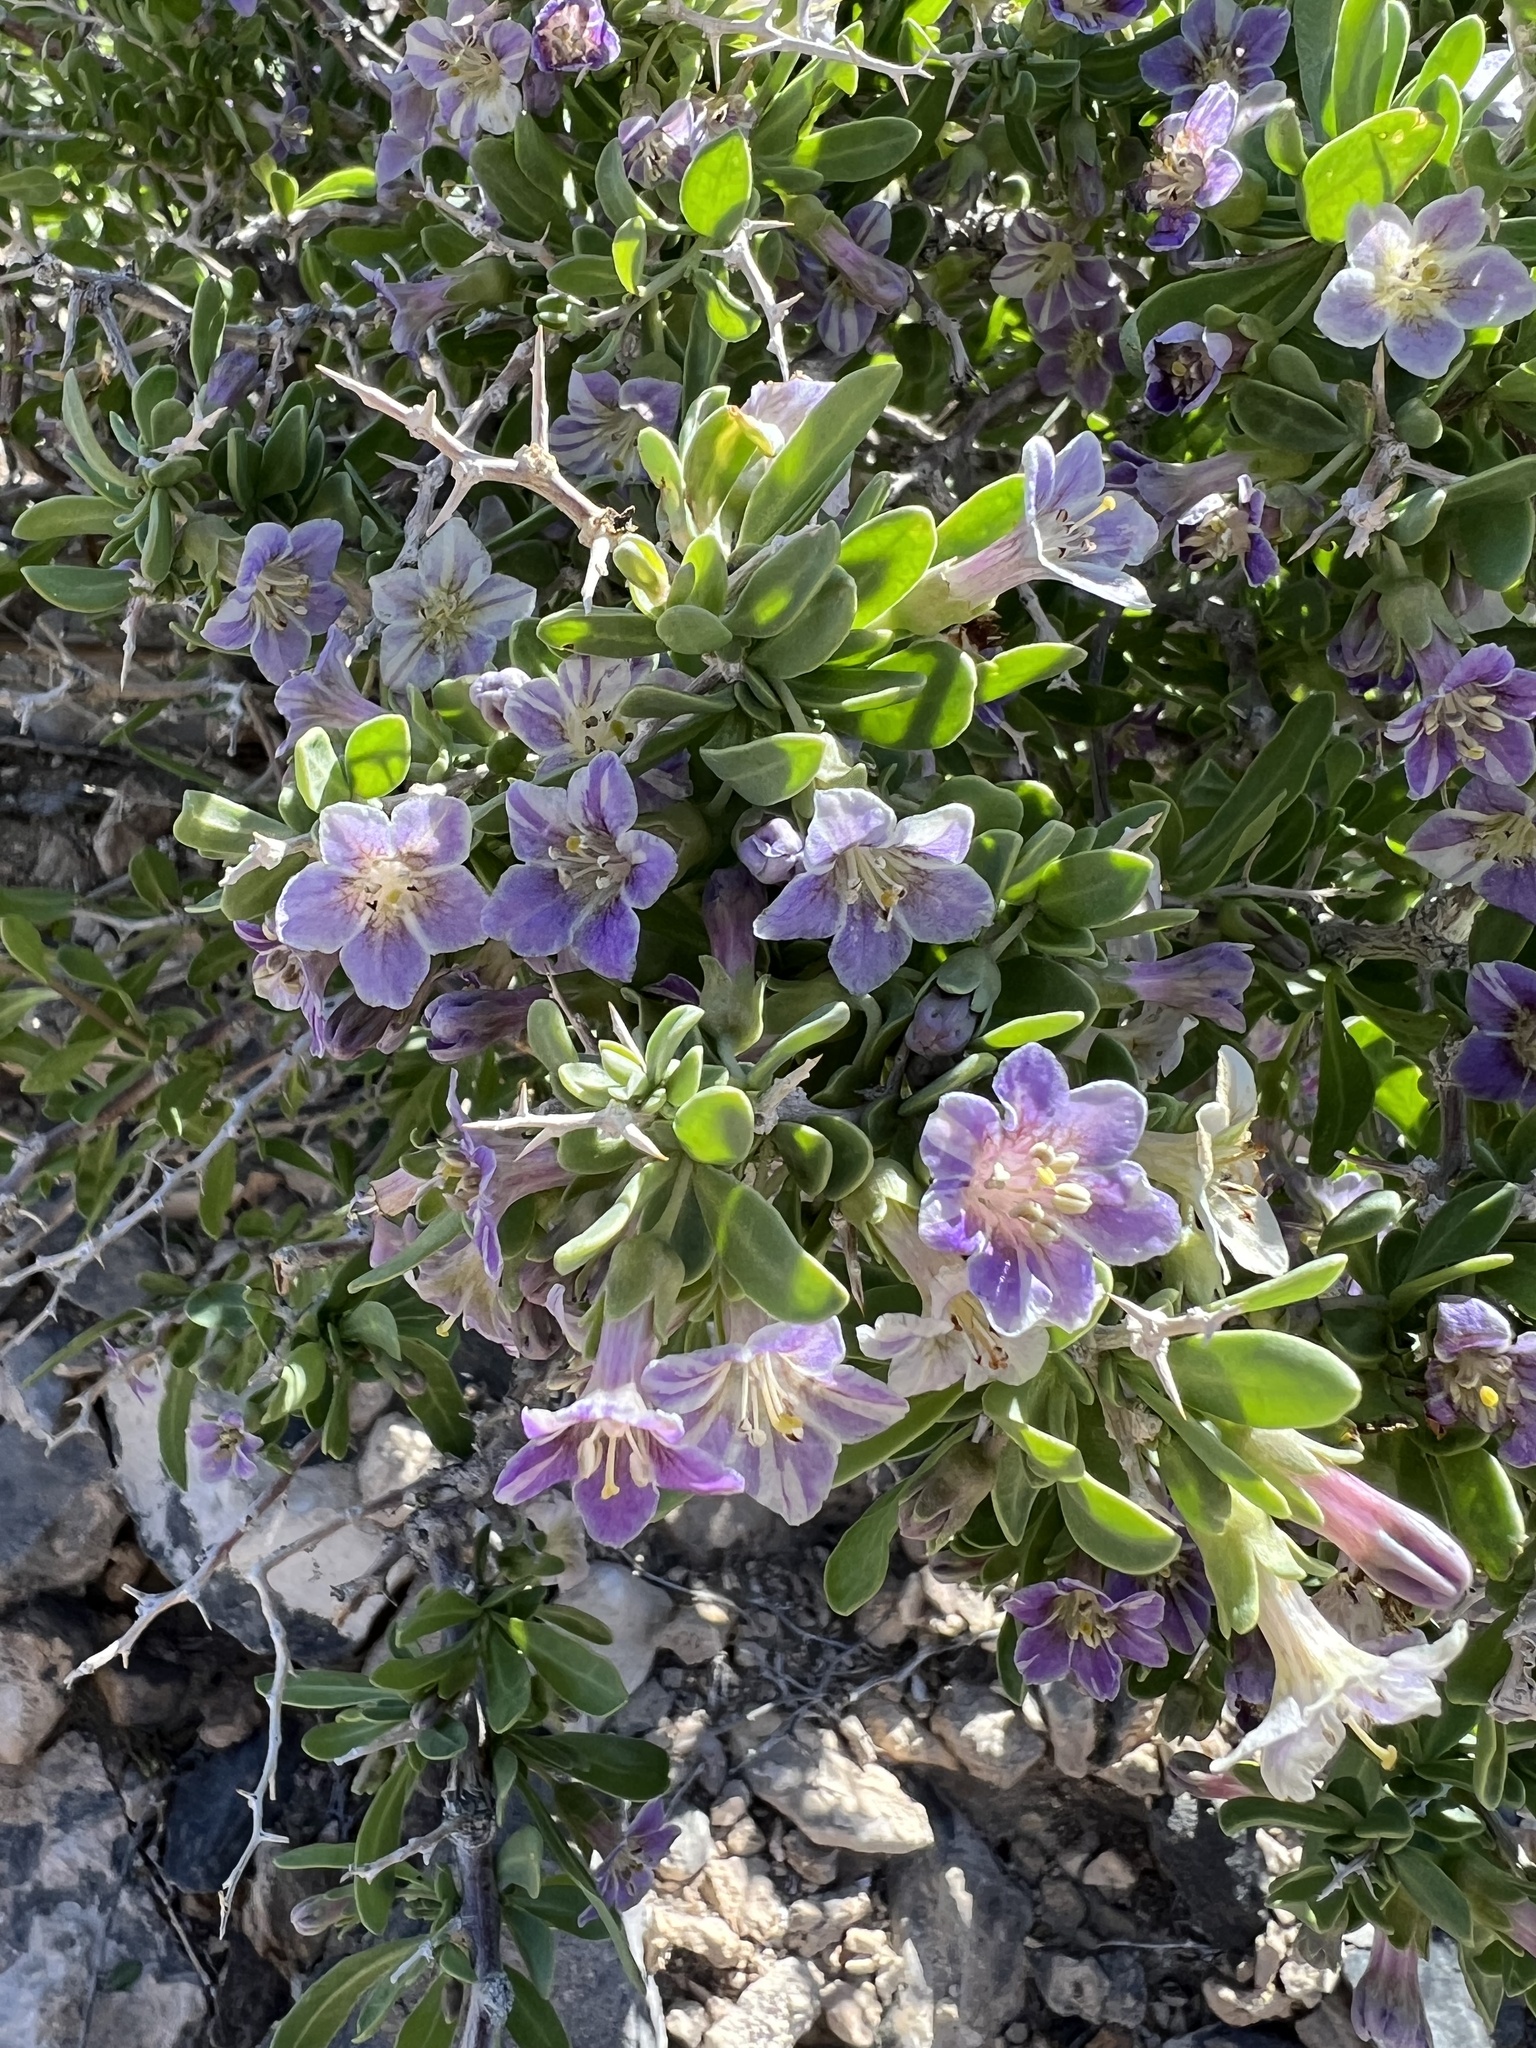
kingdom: Plantae
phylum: Tracheophyta
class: Magnoliopsida
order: Solanales
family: Solanaceae
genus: Lycium
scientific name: Lycium pallidum
